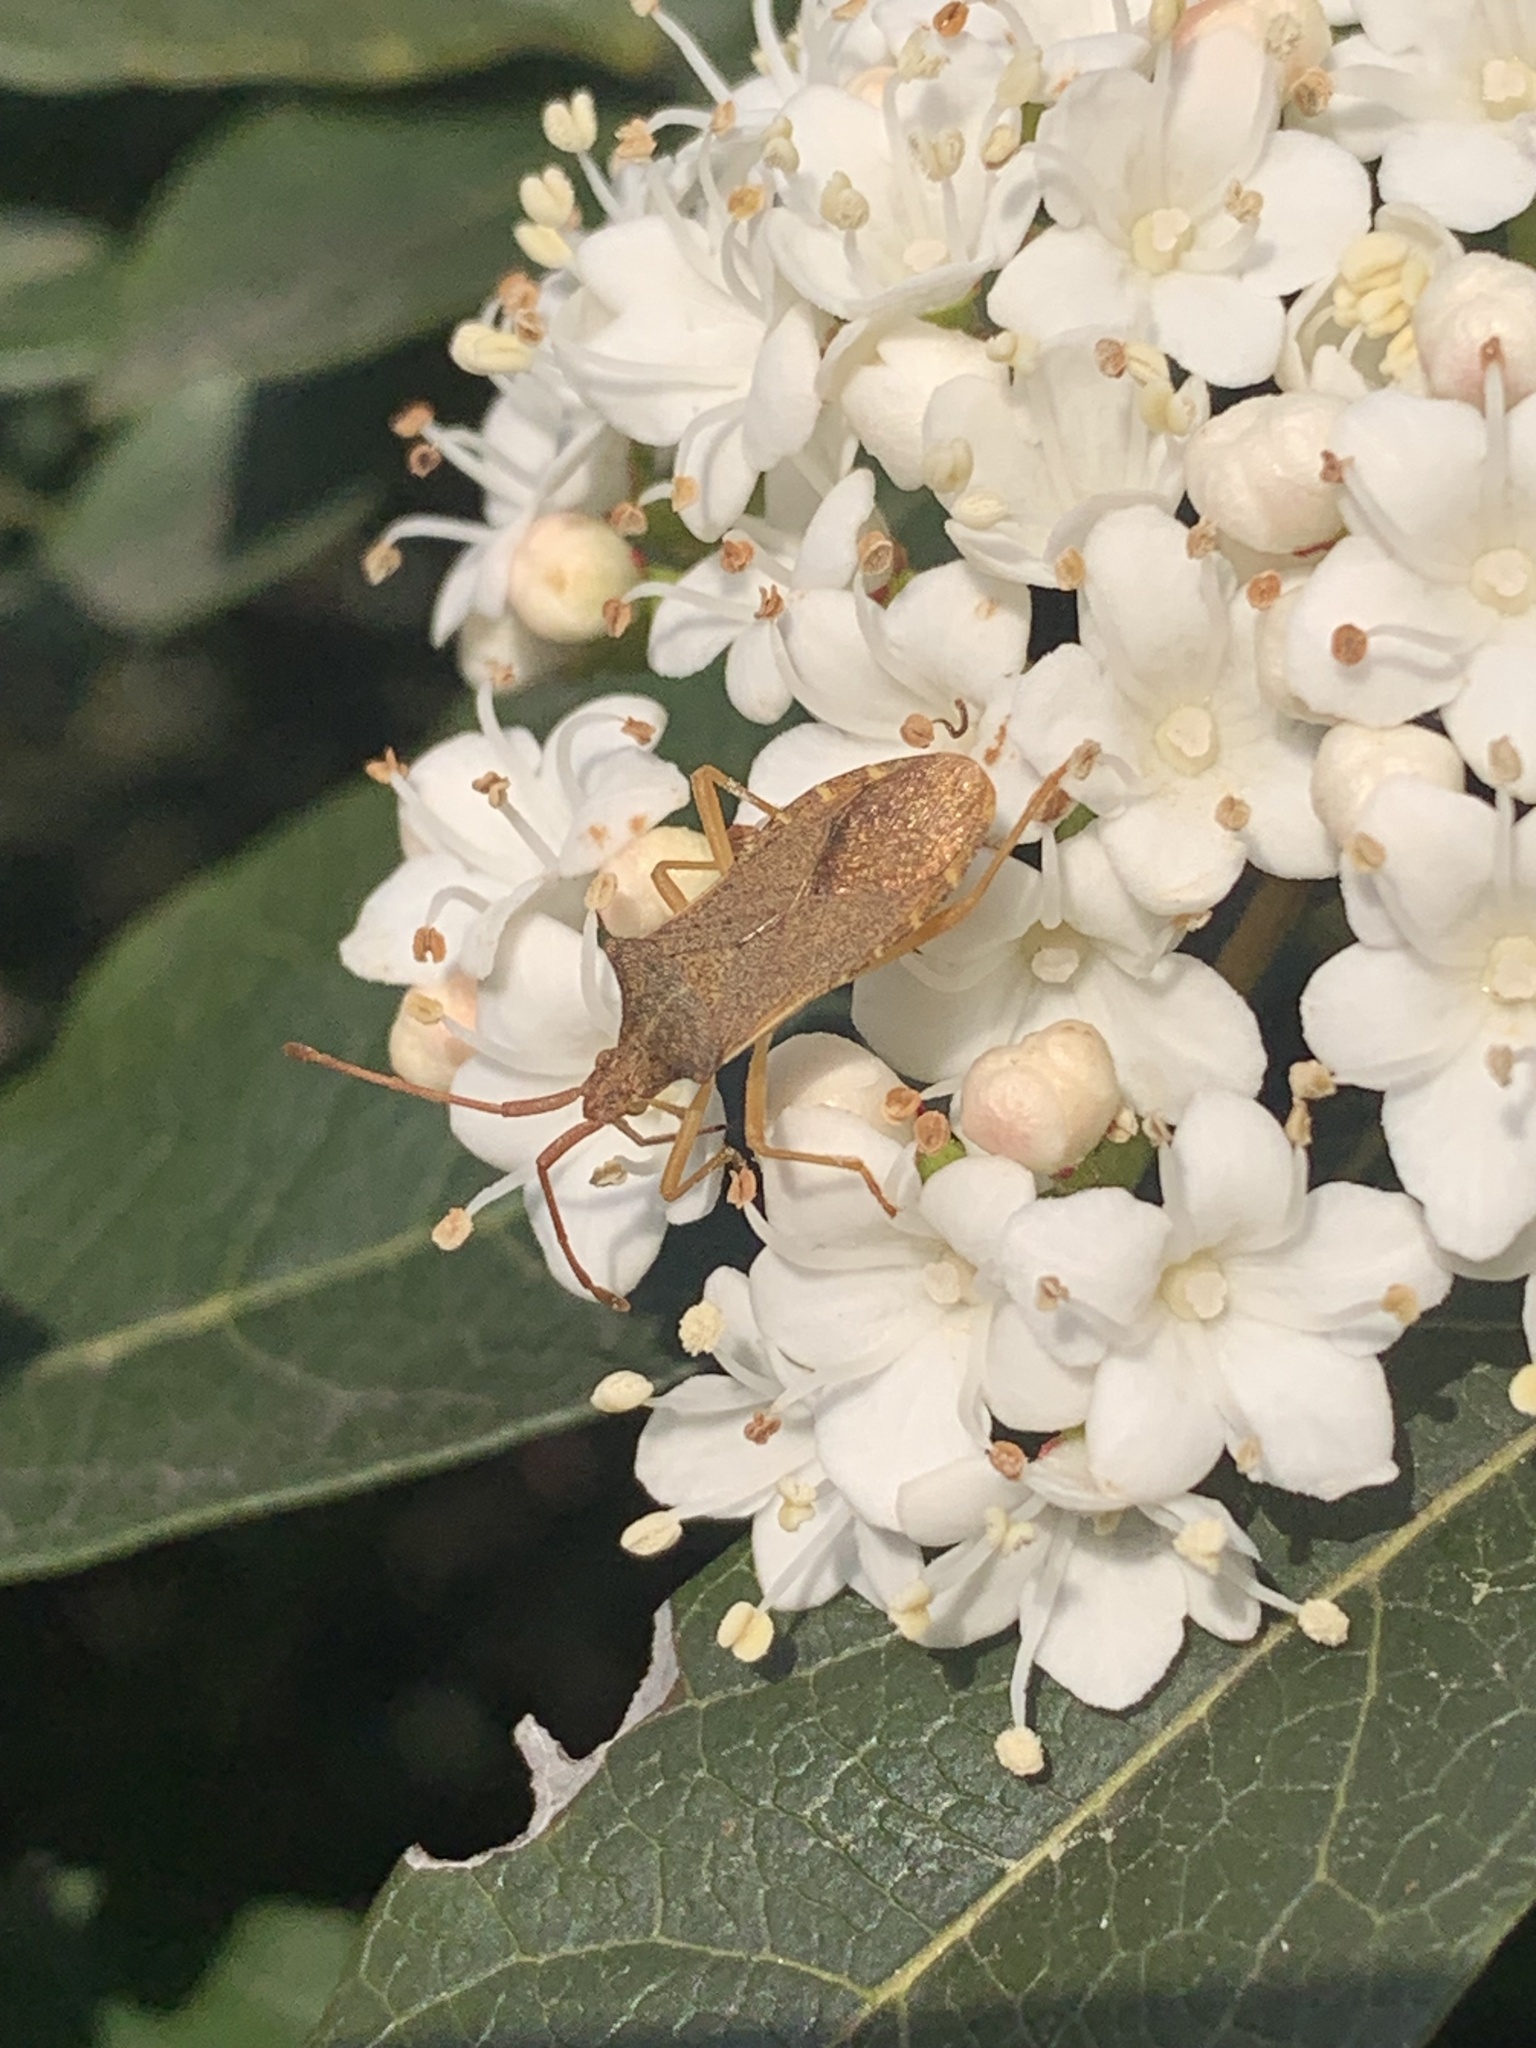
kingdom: Animalia
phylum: Arthropoda
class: Insecta
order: Hemiptera
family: Coreidae
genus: Gonocerus
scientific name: Gonocerus acuteangulatus
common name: Box bug
